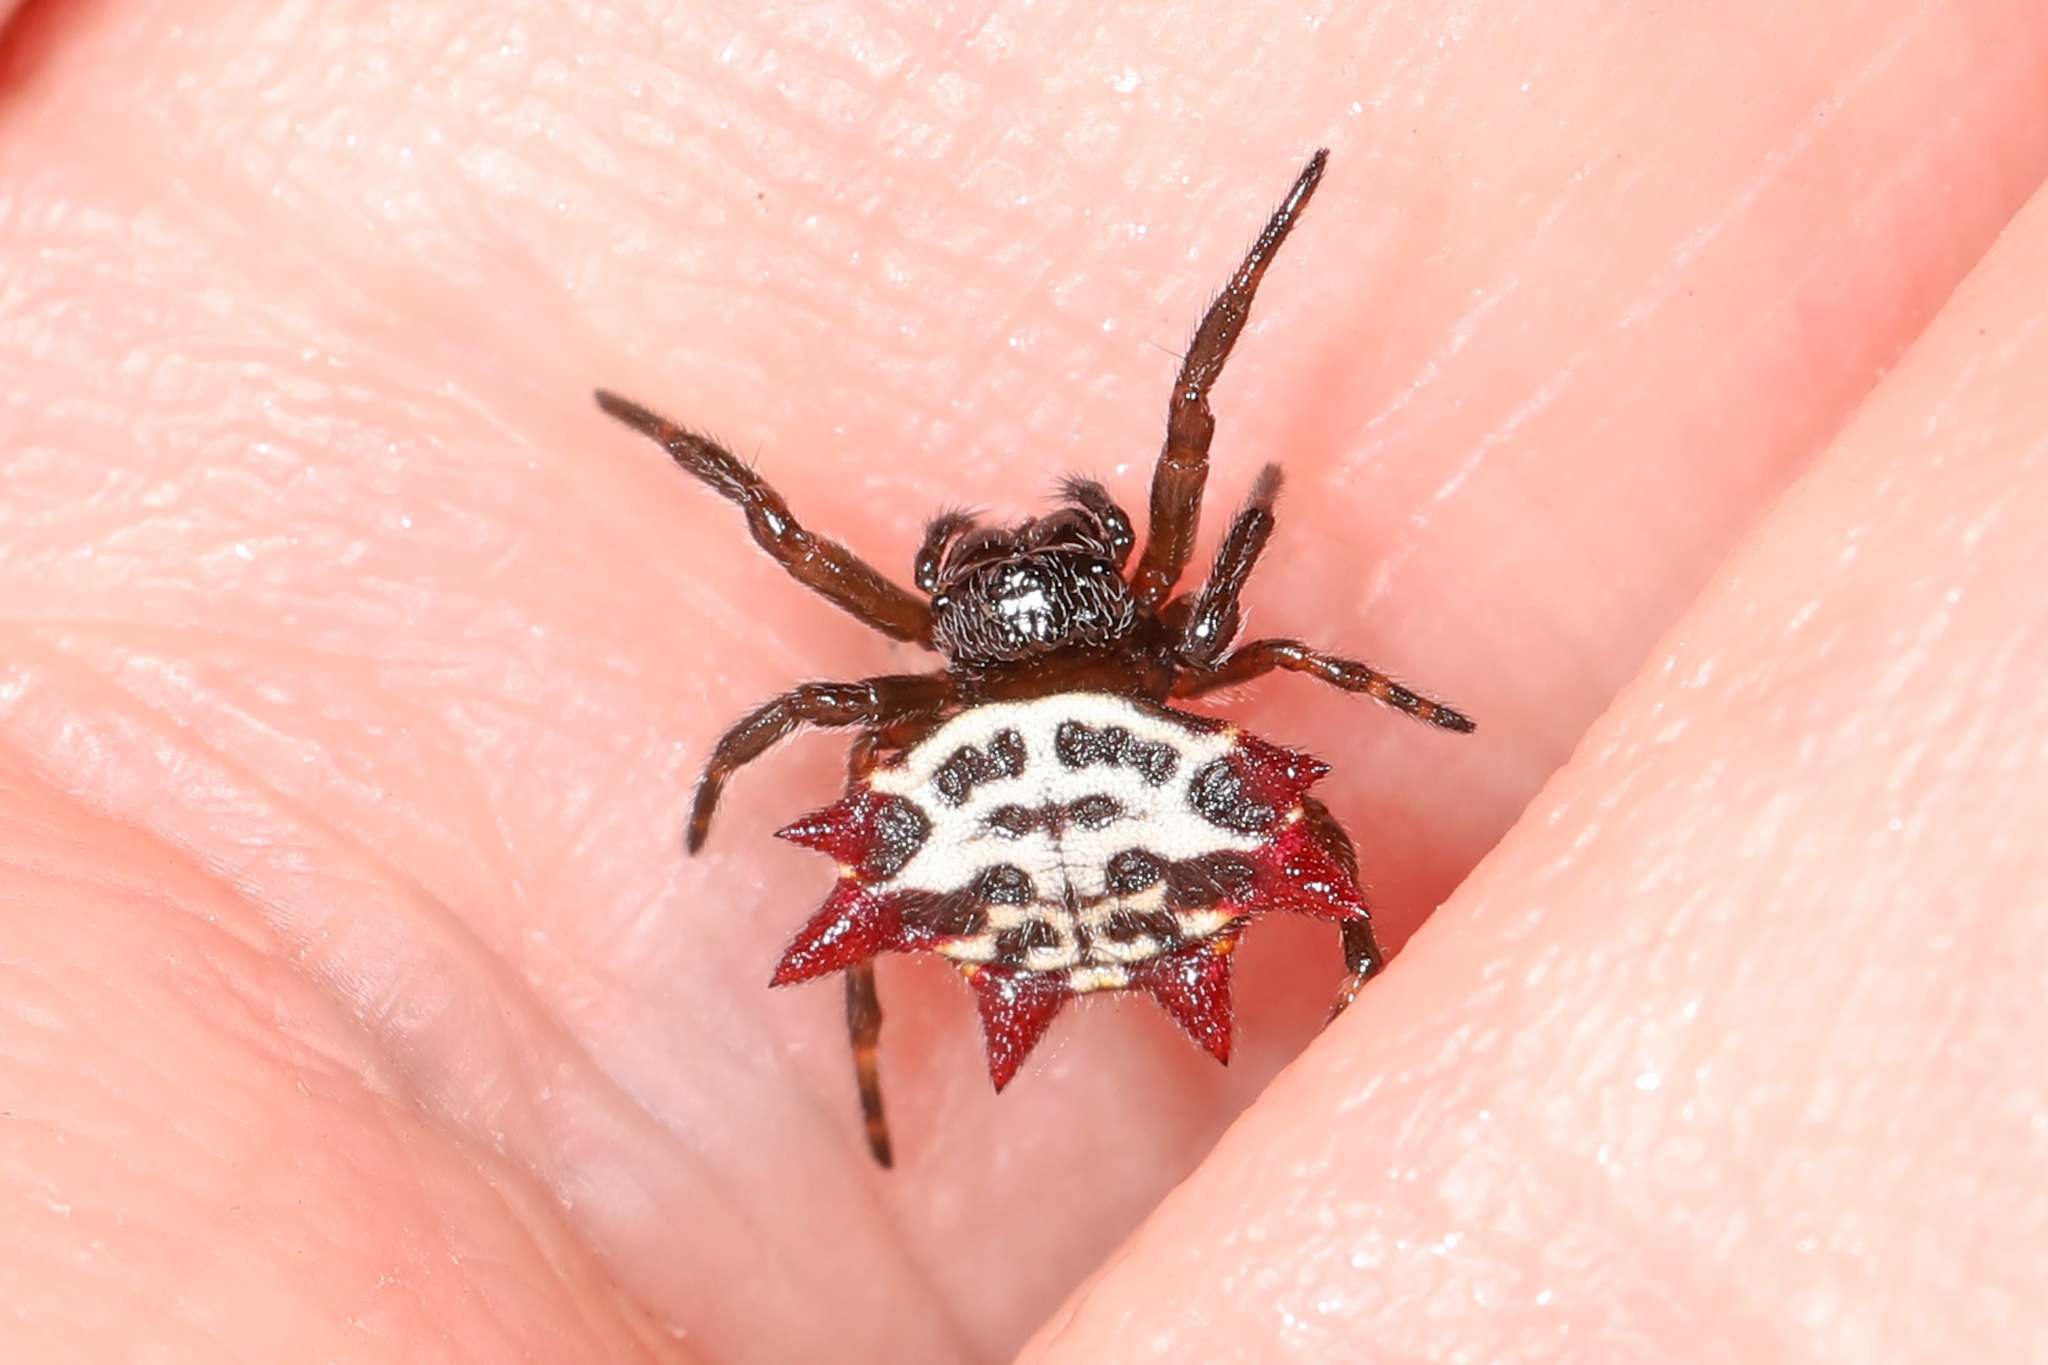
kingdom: Animalia
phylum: Arthropoda
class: Arachnida
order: Araneae
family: Araneidae
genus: Gasteracantha
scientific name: Gasteracantha cancriformis
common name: Orb weavers
